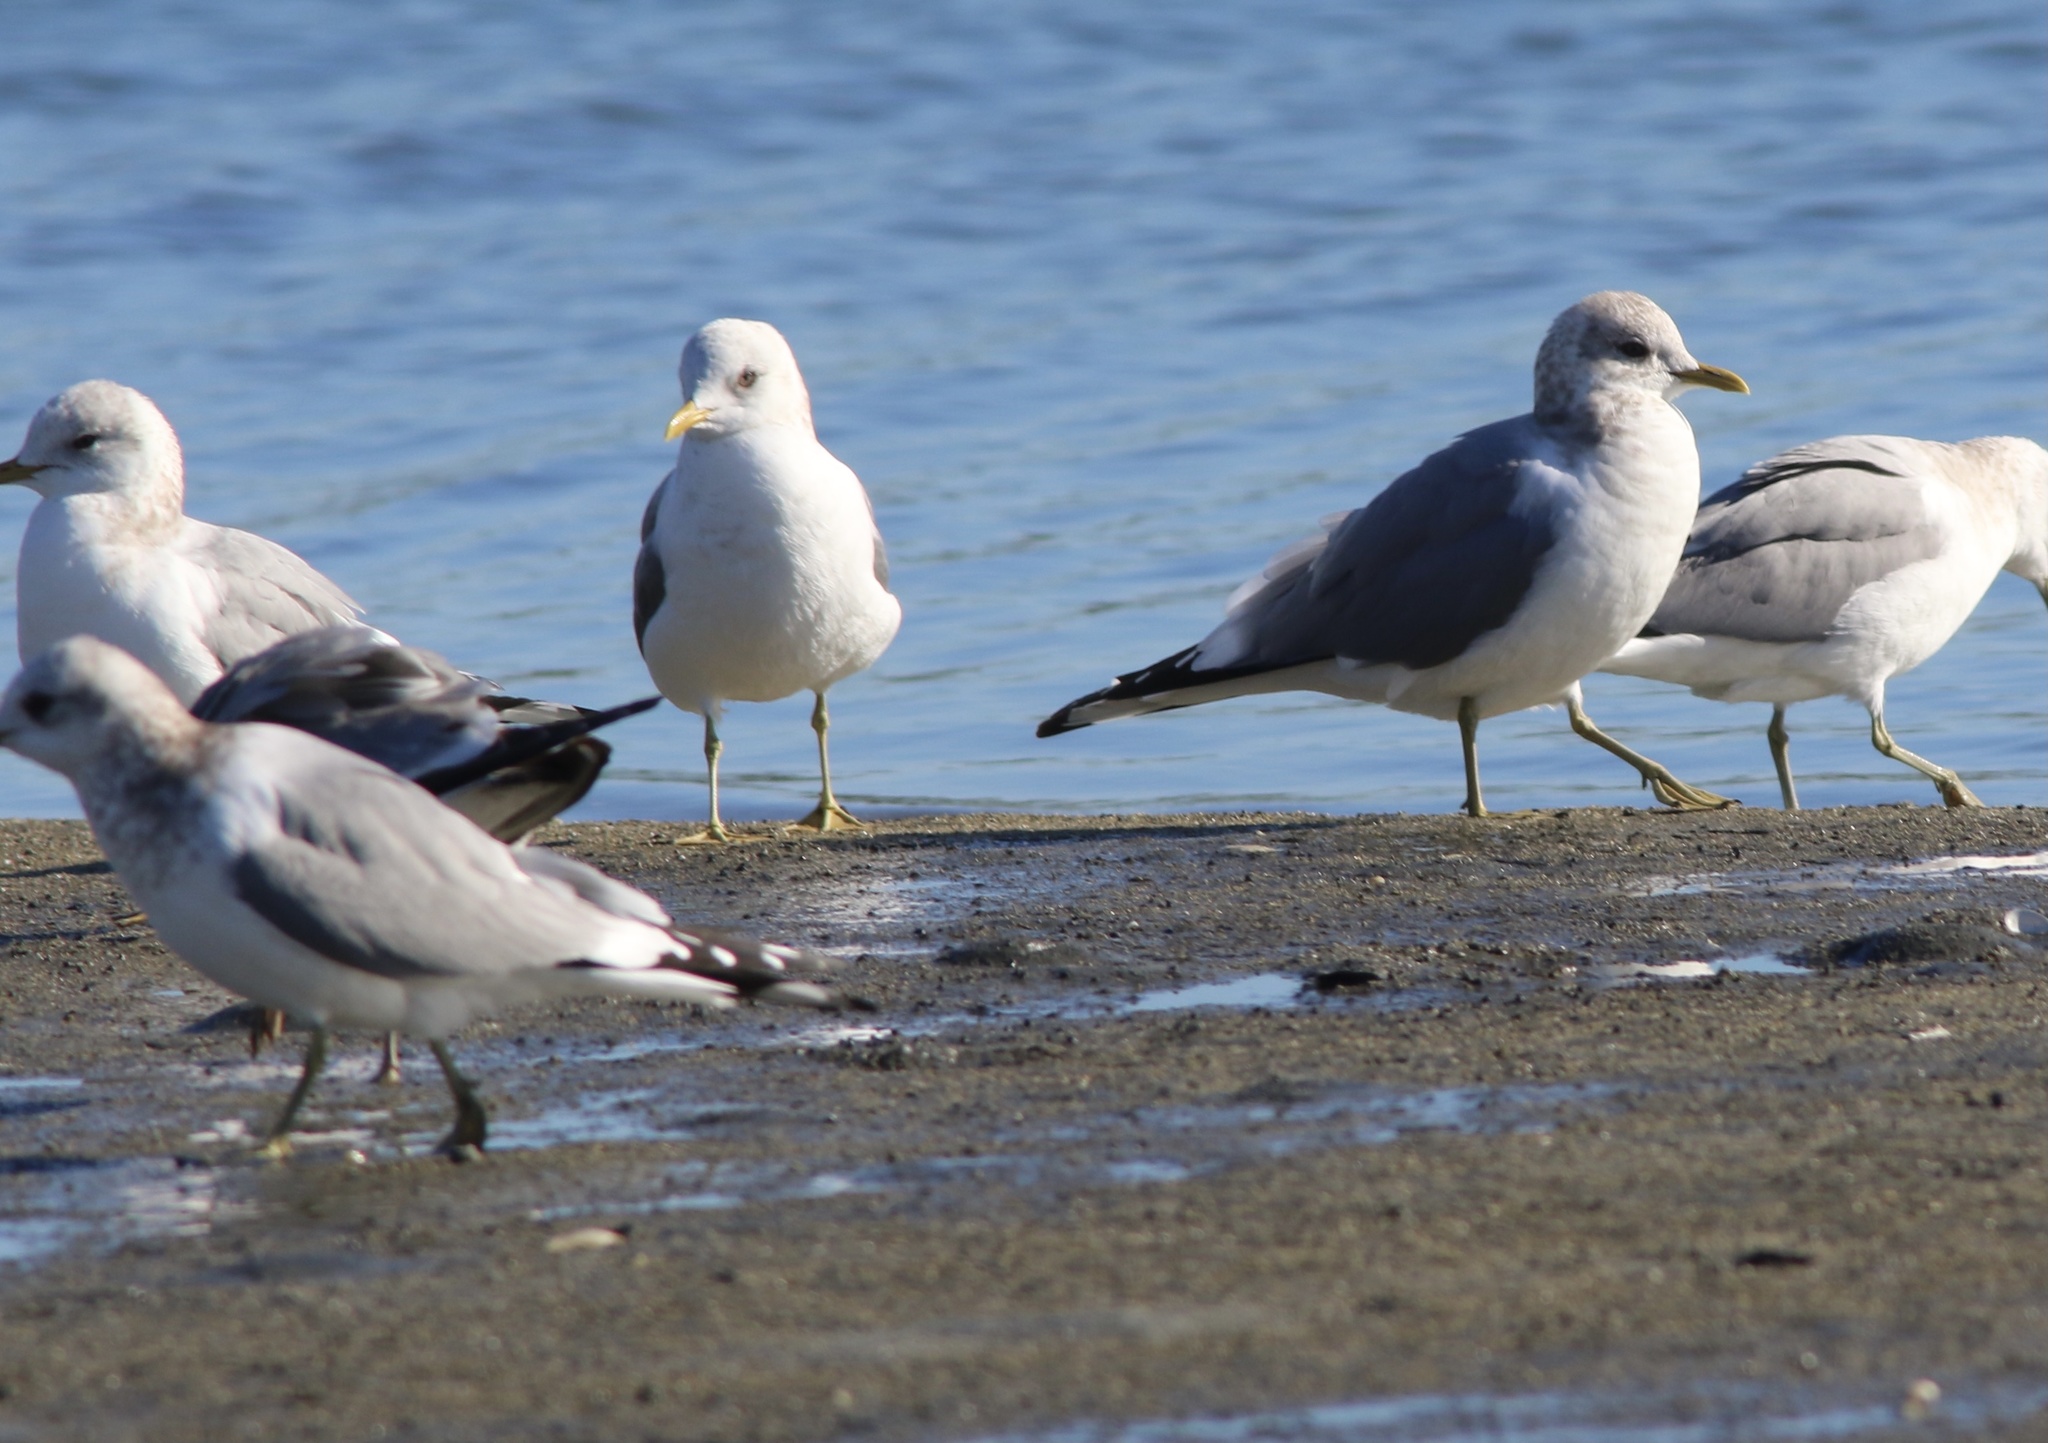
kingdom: Animalia
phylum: Chordata
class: Aves
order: Charadriiformes
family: Laridae
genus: Larus
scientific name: Larus brachyrhynchus
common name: Short-billed gull
